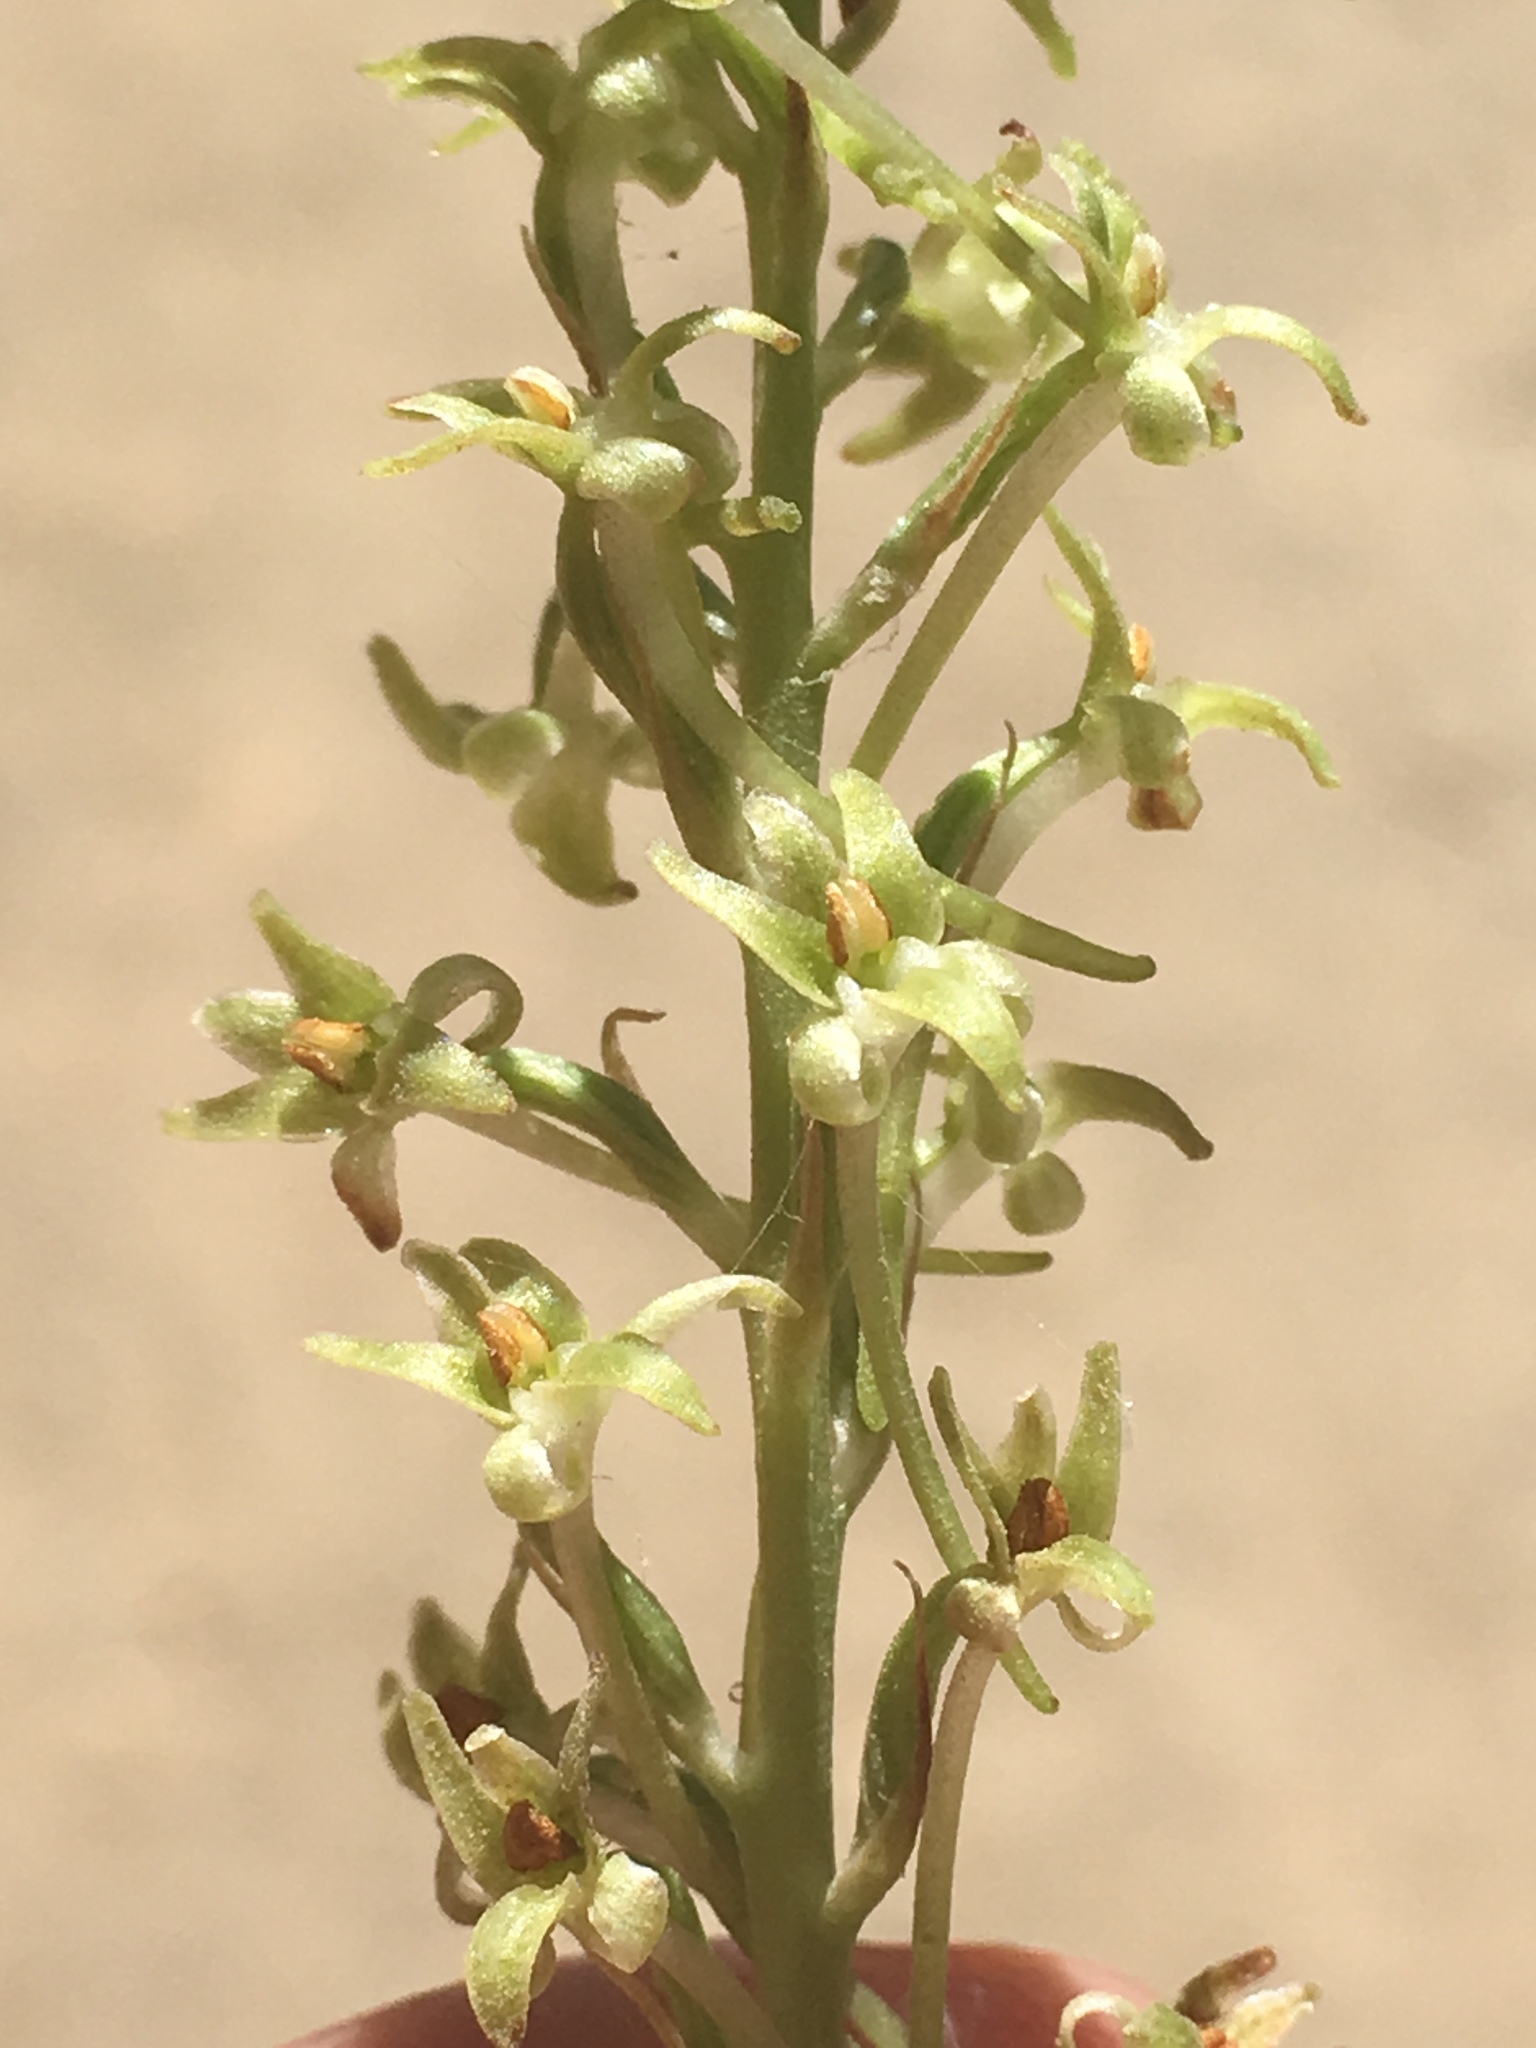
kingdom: Plantae
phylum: Tracheophyta
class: Liliopsida
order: Asparagales
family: Orchidaceae
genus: Platanthera
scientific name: Platanthera elongata
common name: Dense-flowered rein orchid
